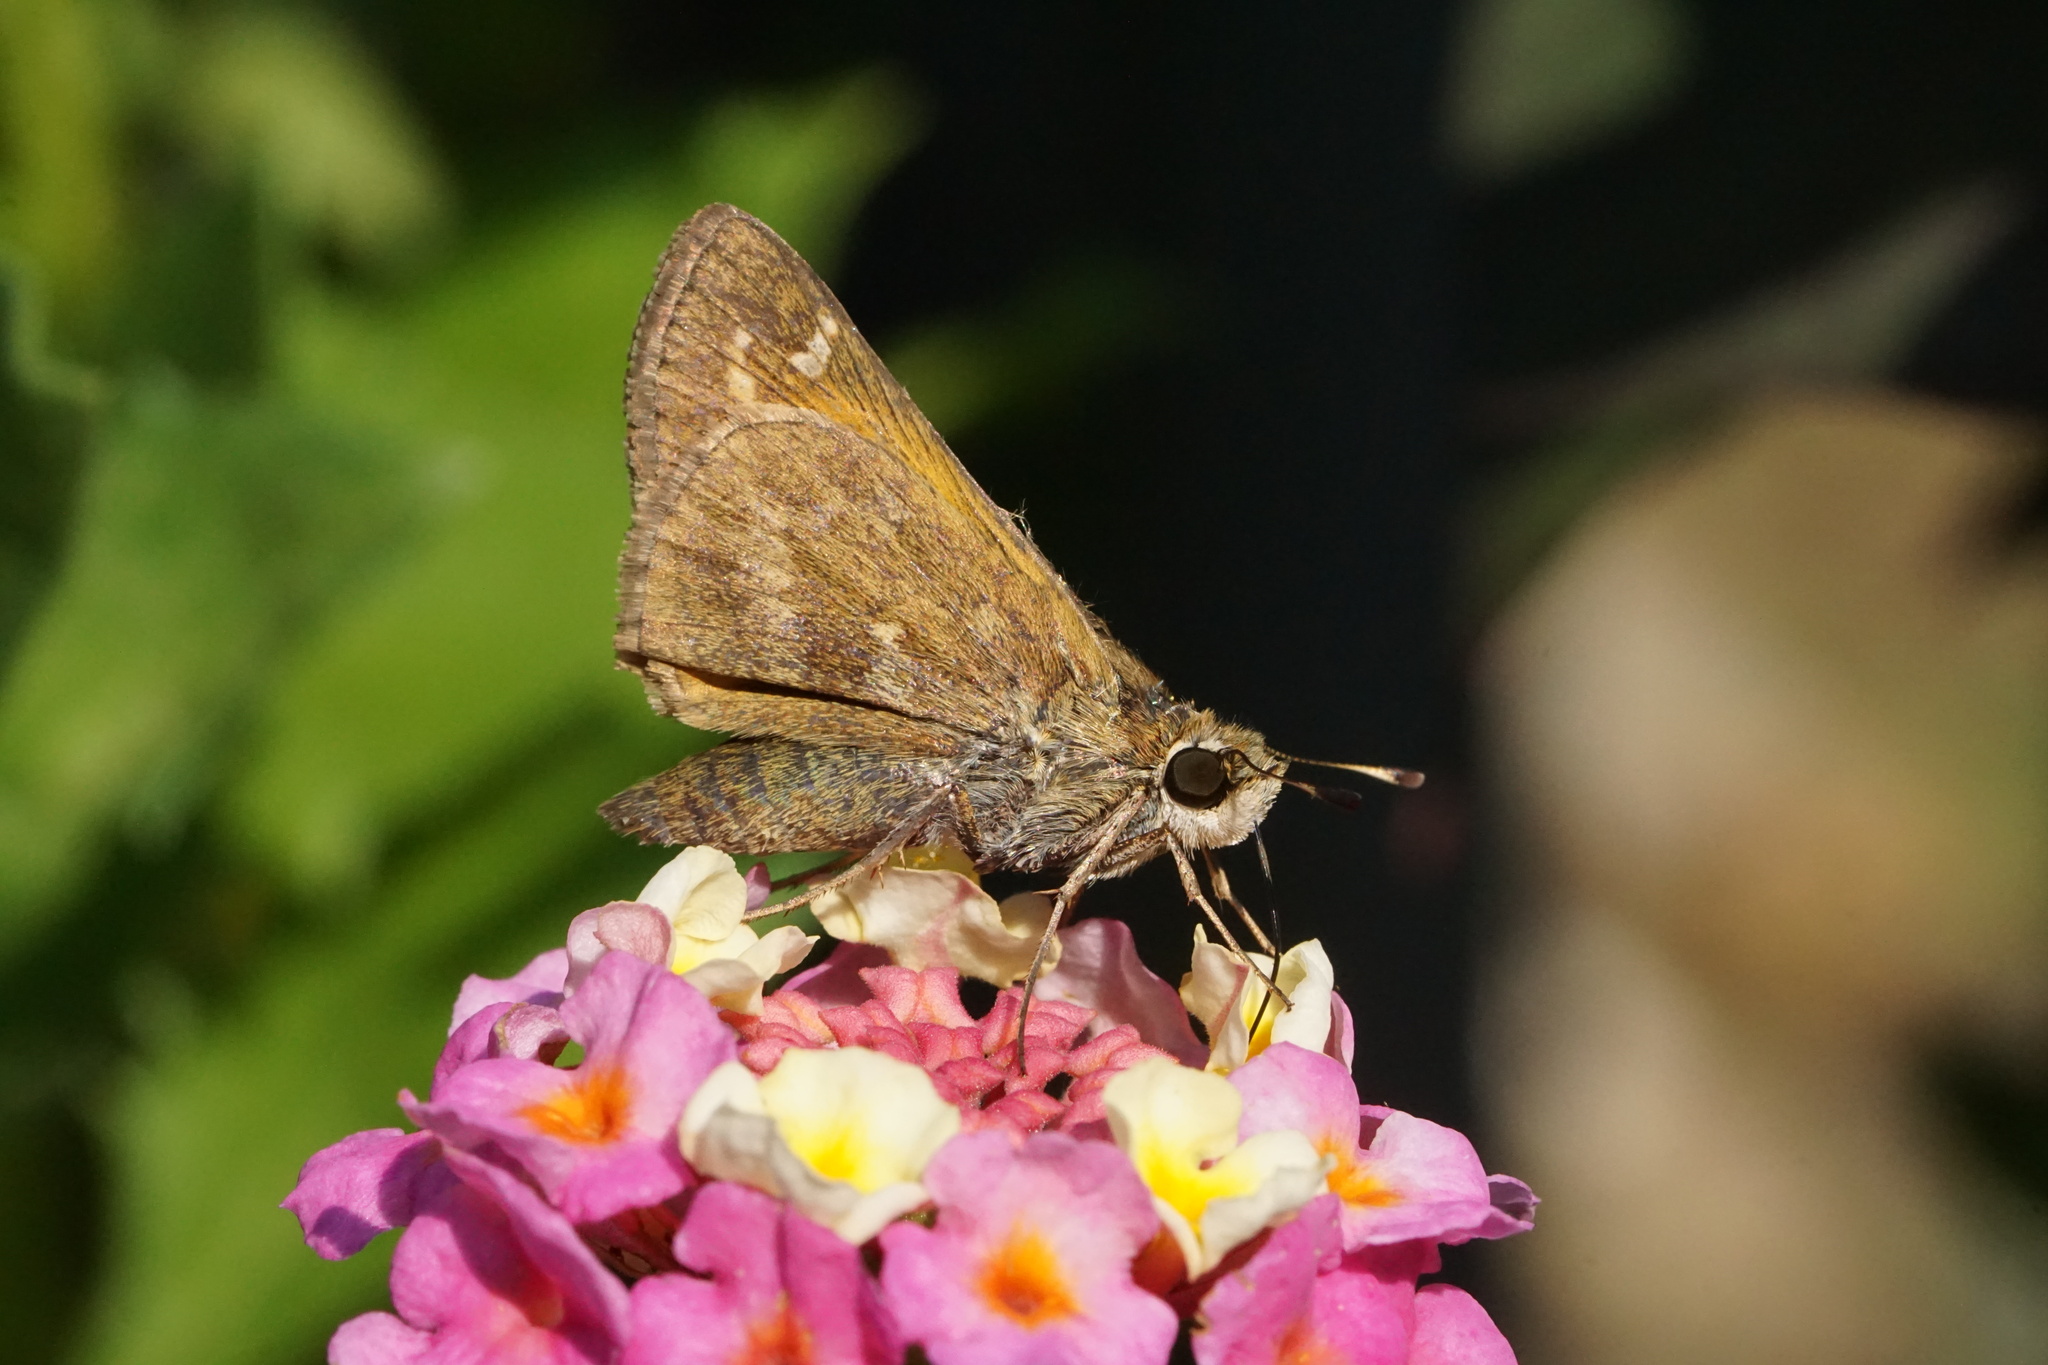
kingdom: Animalia
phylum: Arthropoda
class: Insecta
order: Lepidoptera
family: Hesperiidae
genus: Atalopedes
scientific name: Atalopedes
